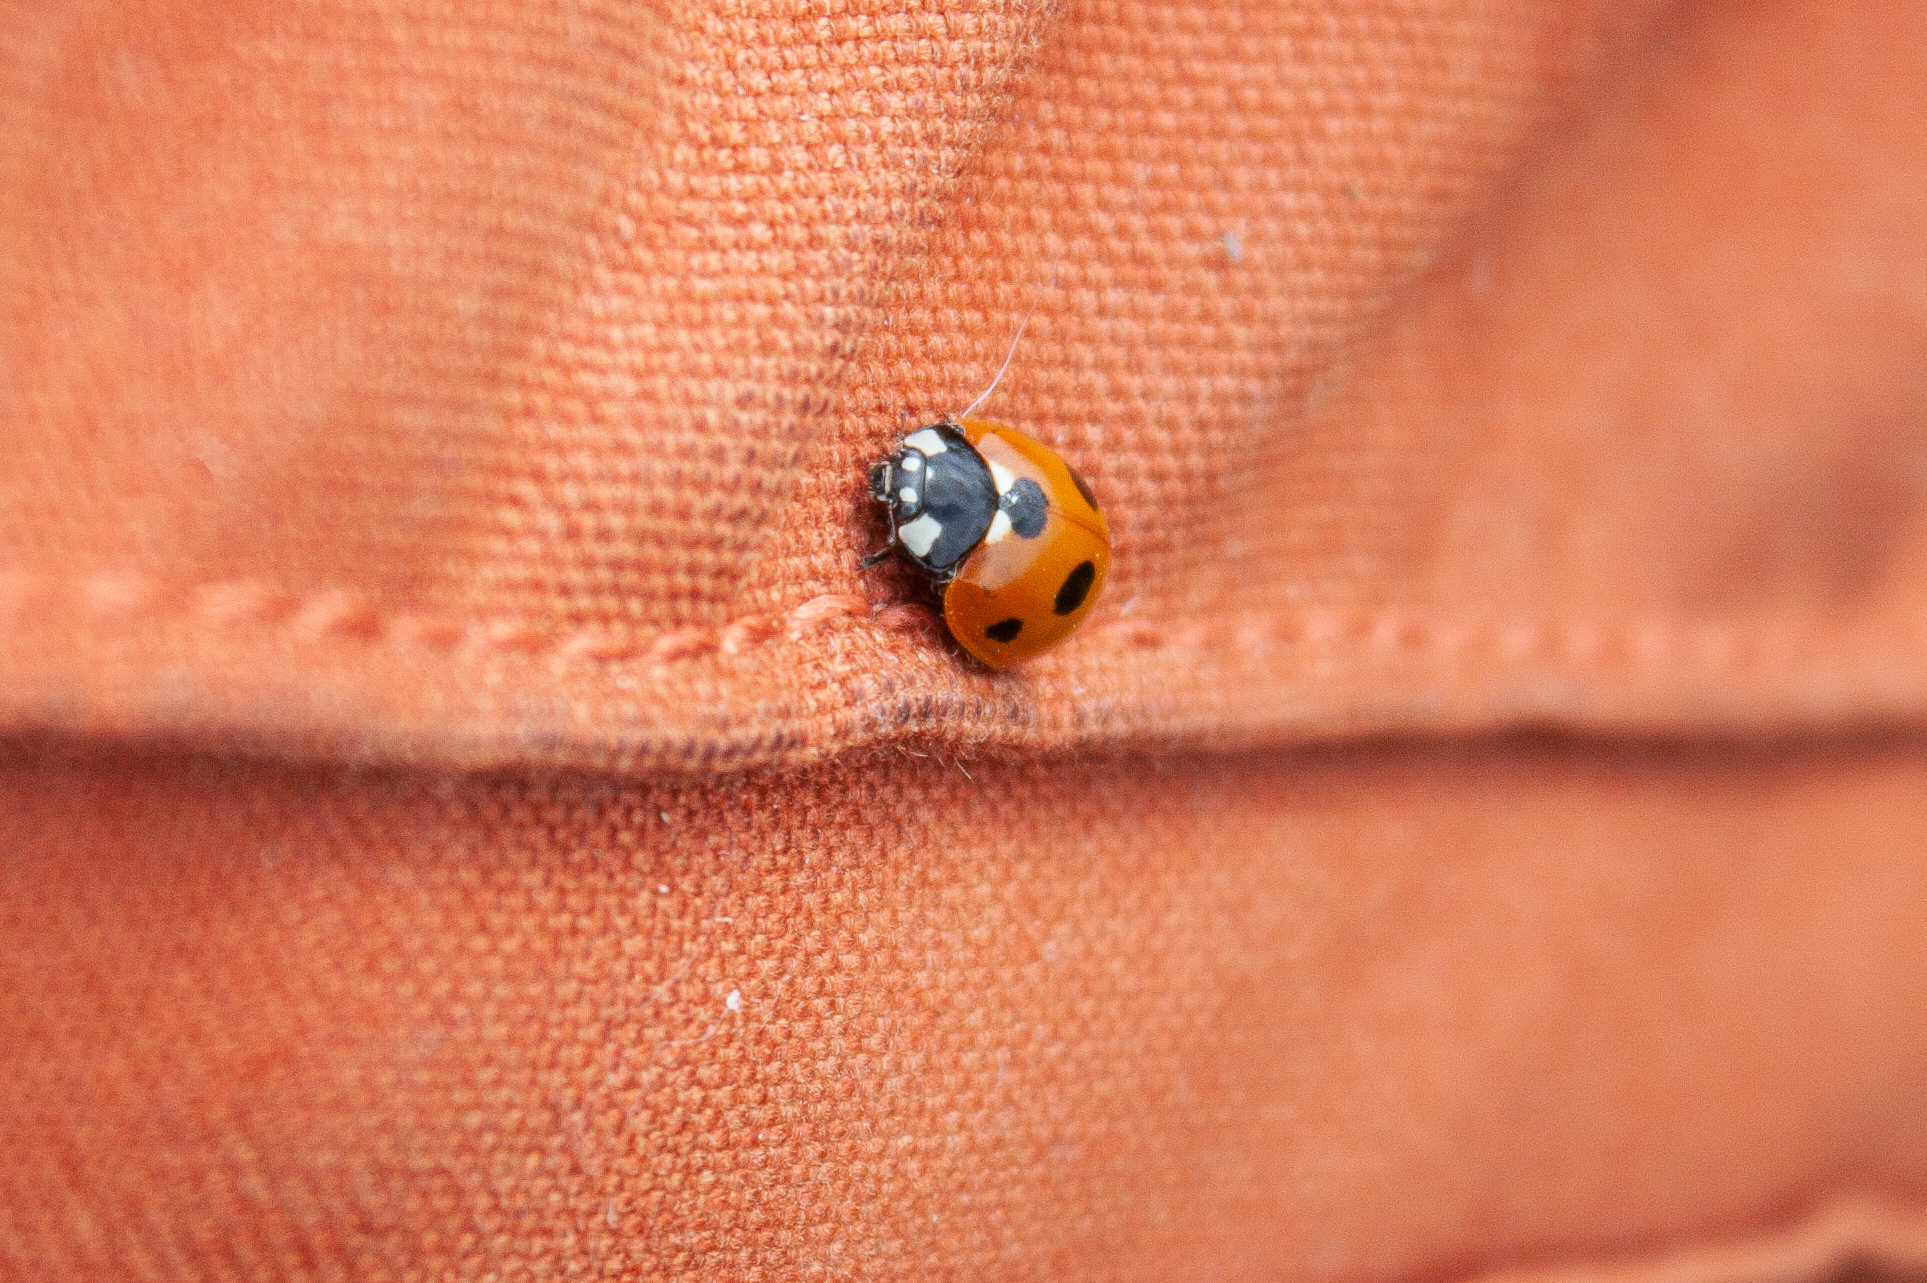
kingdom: Animalia
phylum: Arthropoda
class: Insecta
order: Coleoptera
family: Coccinellidae
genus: Coccinella
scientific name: Coccinella septempunctata
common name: Sevenspotted lady beetle
